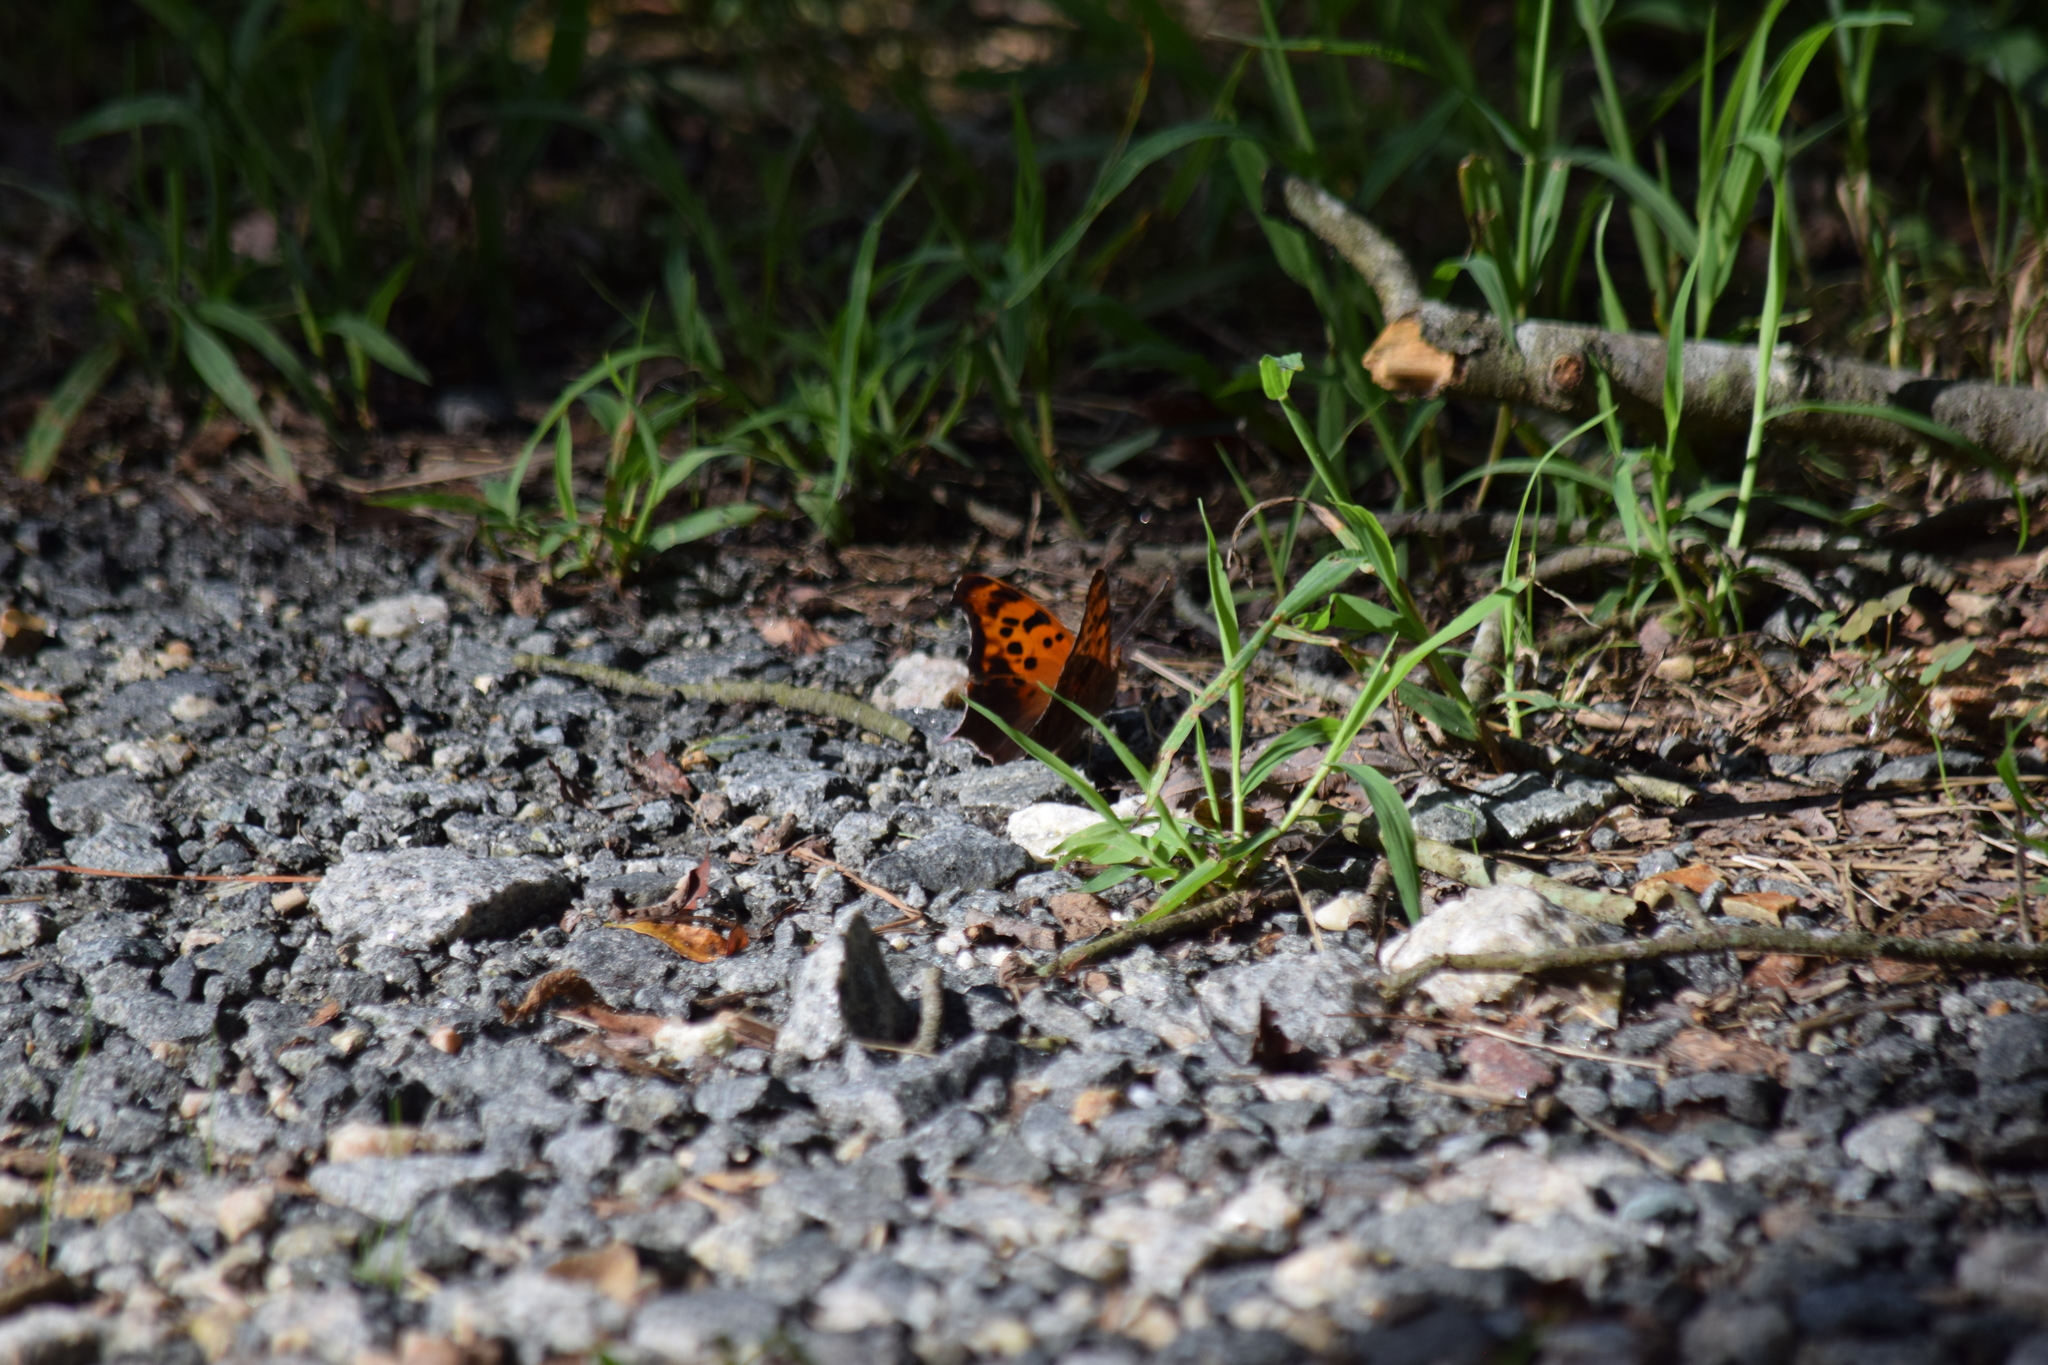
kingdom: Animalia
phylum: Arthropoda
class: Insecta
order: Lepidoptera
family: Nymphalidae
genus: Polygonia
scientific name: Polygonia interrogationis
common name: Question mark
